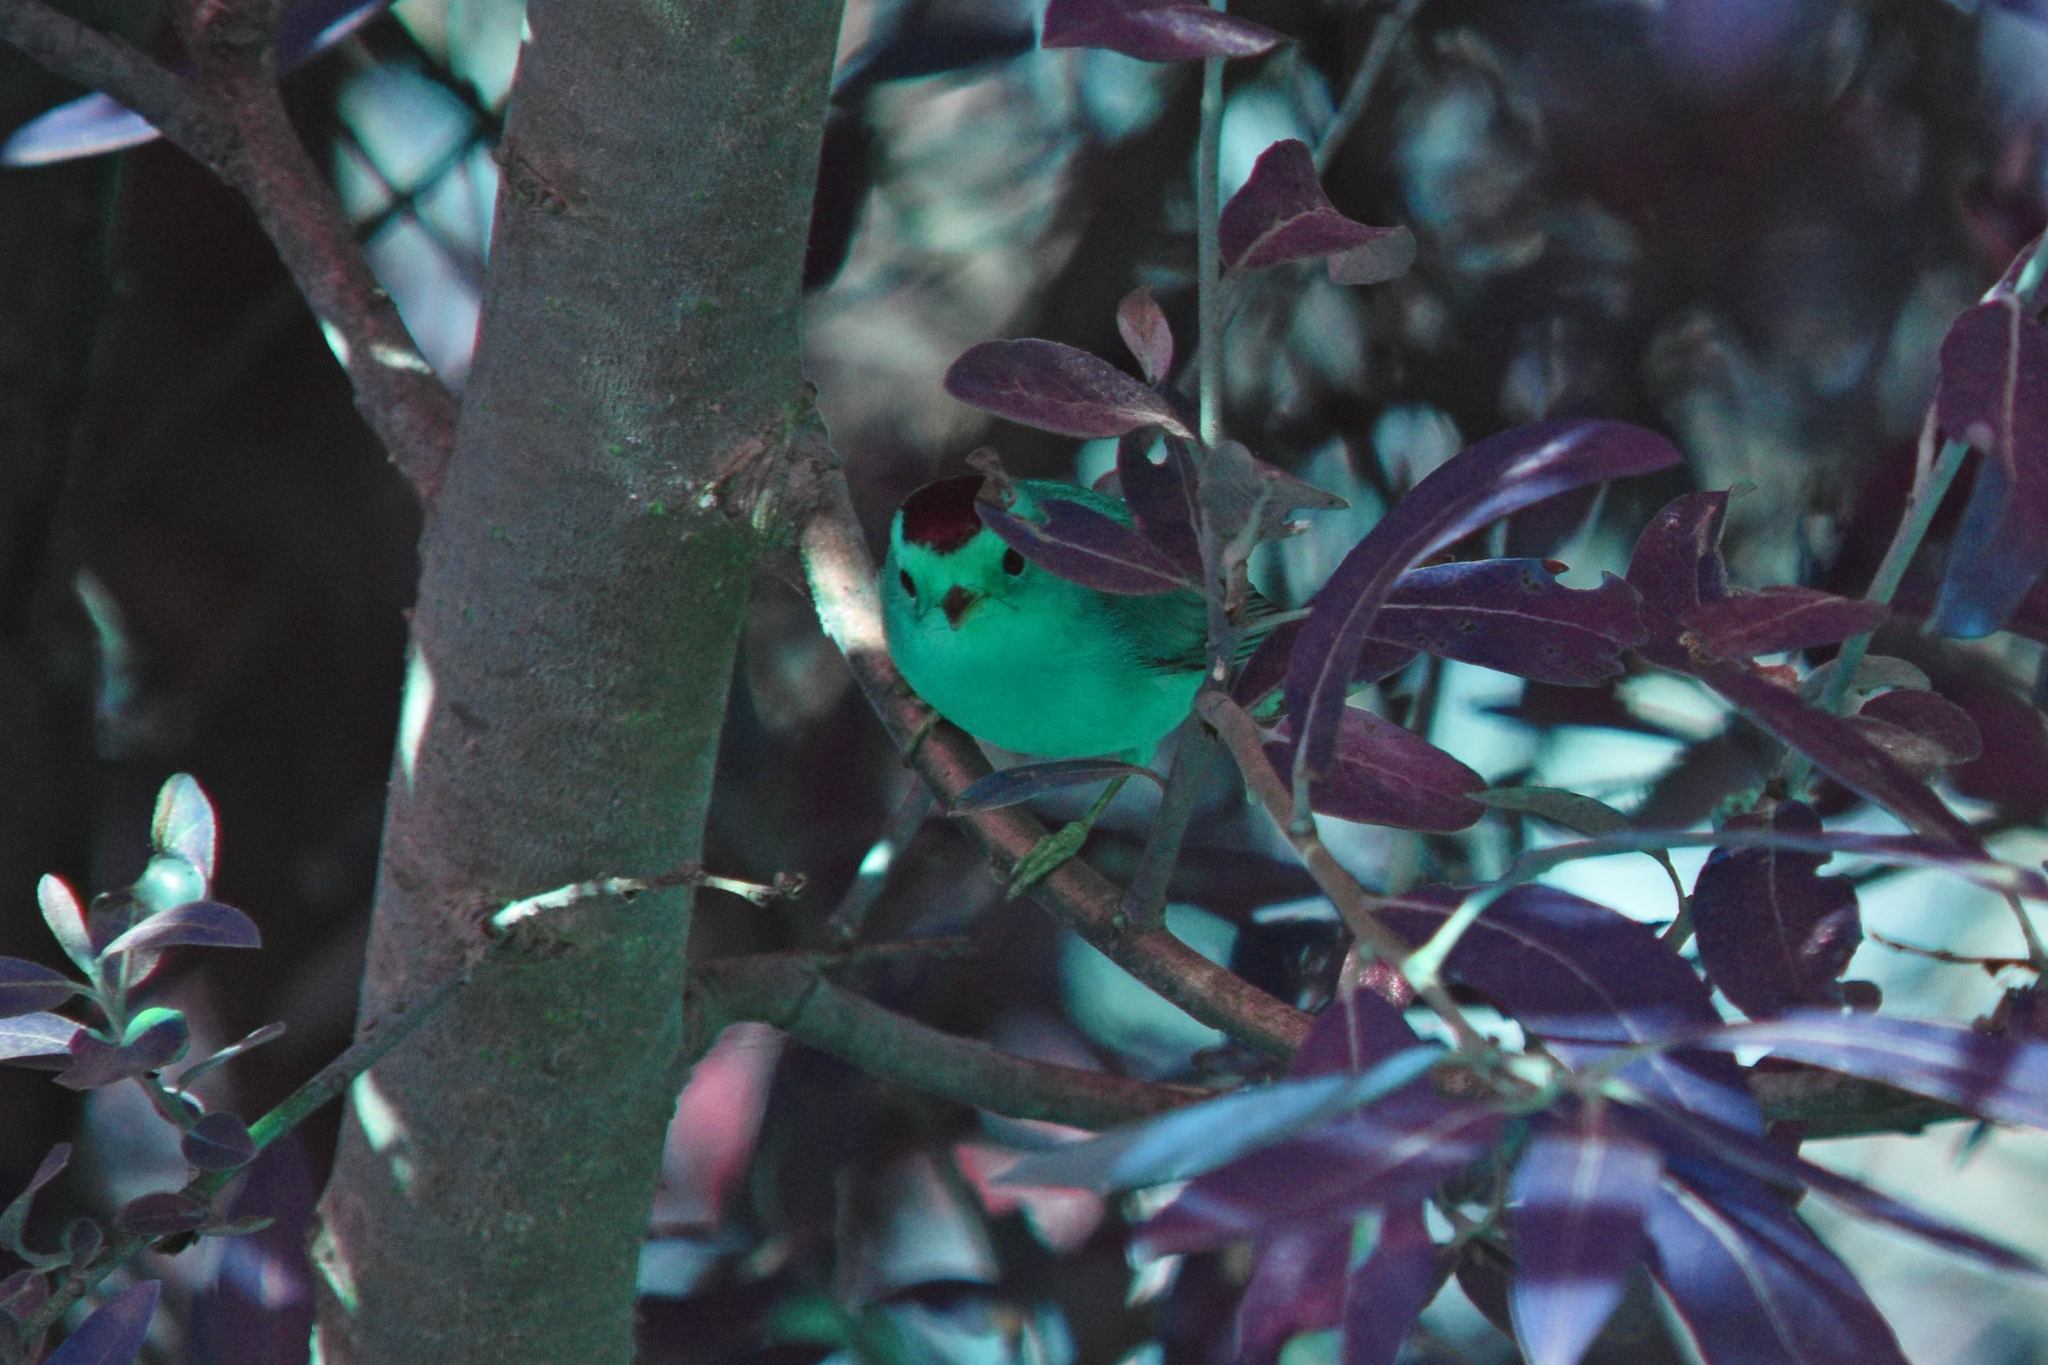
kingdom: Animalia
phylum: Chordata
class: Aves
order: Passeriformes
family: Parulidae
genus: Cardellina
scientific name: Cardellina pusilla
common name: Wilson's warbler
